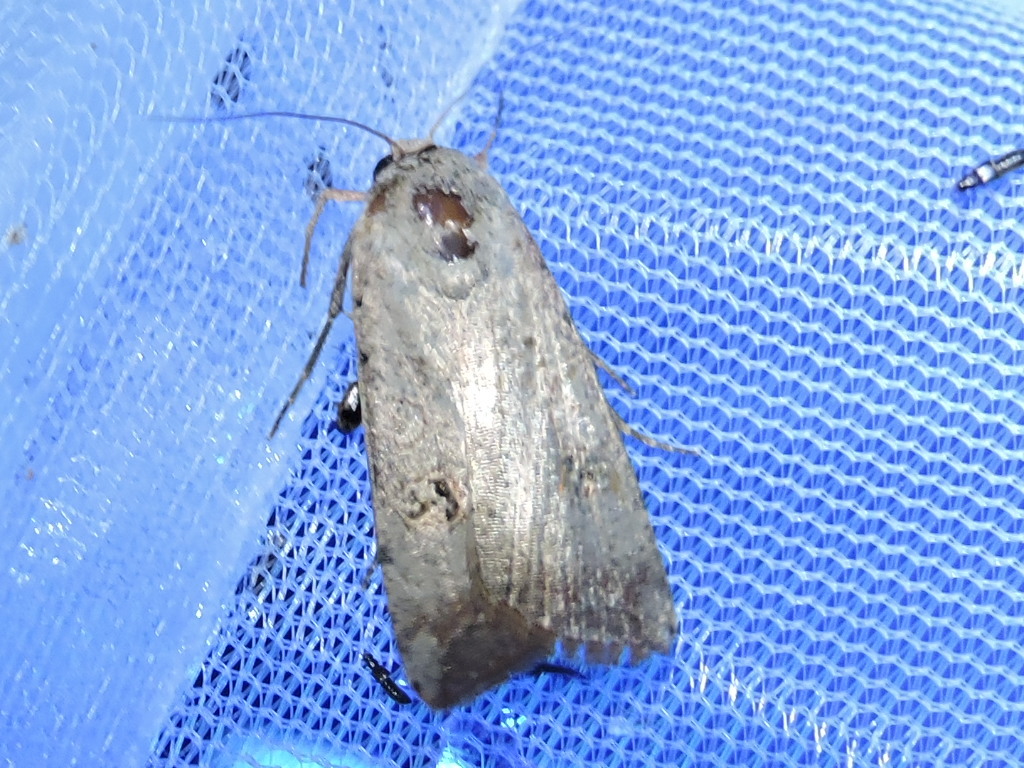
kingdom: Animalia
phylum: Arthropoda
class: Insecta
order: Lepidoptera
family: Noctuidae
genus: Anicla
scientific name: Anicla infecta
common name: Green cutworm
